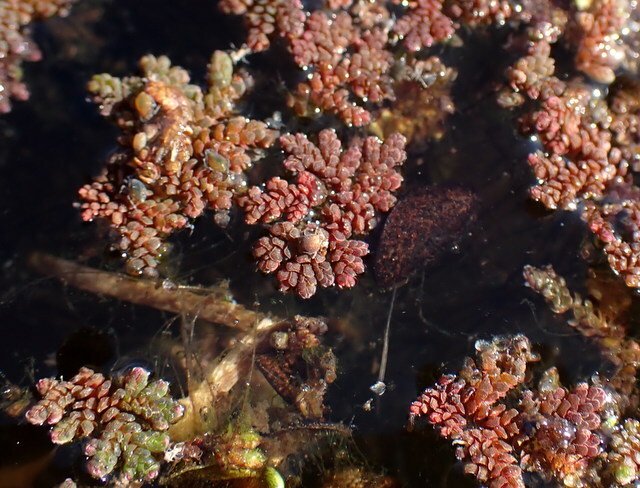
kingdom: Plantae
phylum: Tracheophyta
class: Polypodiopsida
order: Salviniales
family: Salviniaceae
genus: Azolla
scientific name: Azolla caroliniana
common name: Carolina mosquitofern
